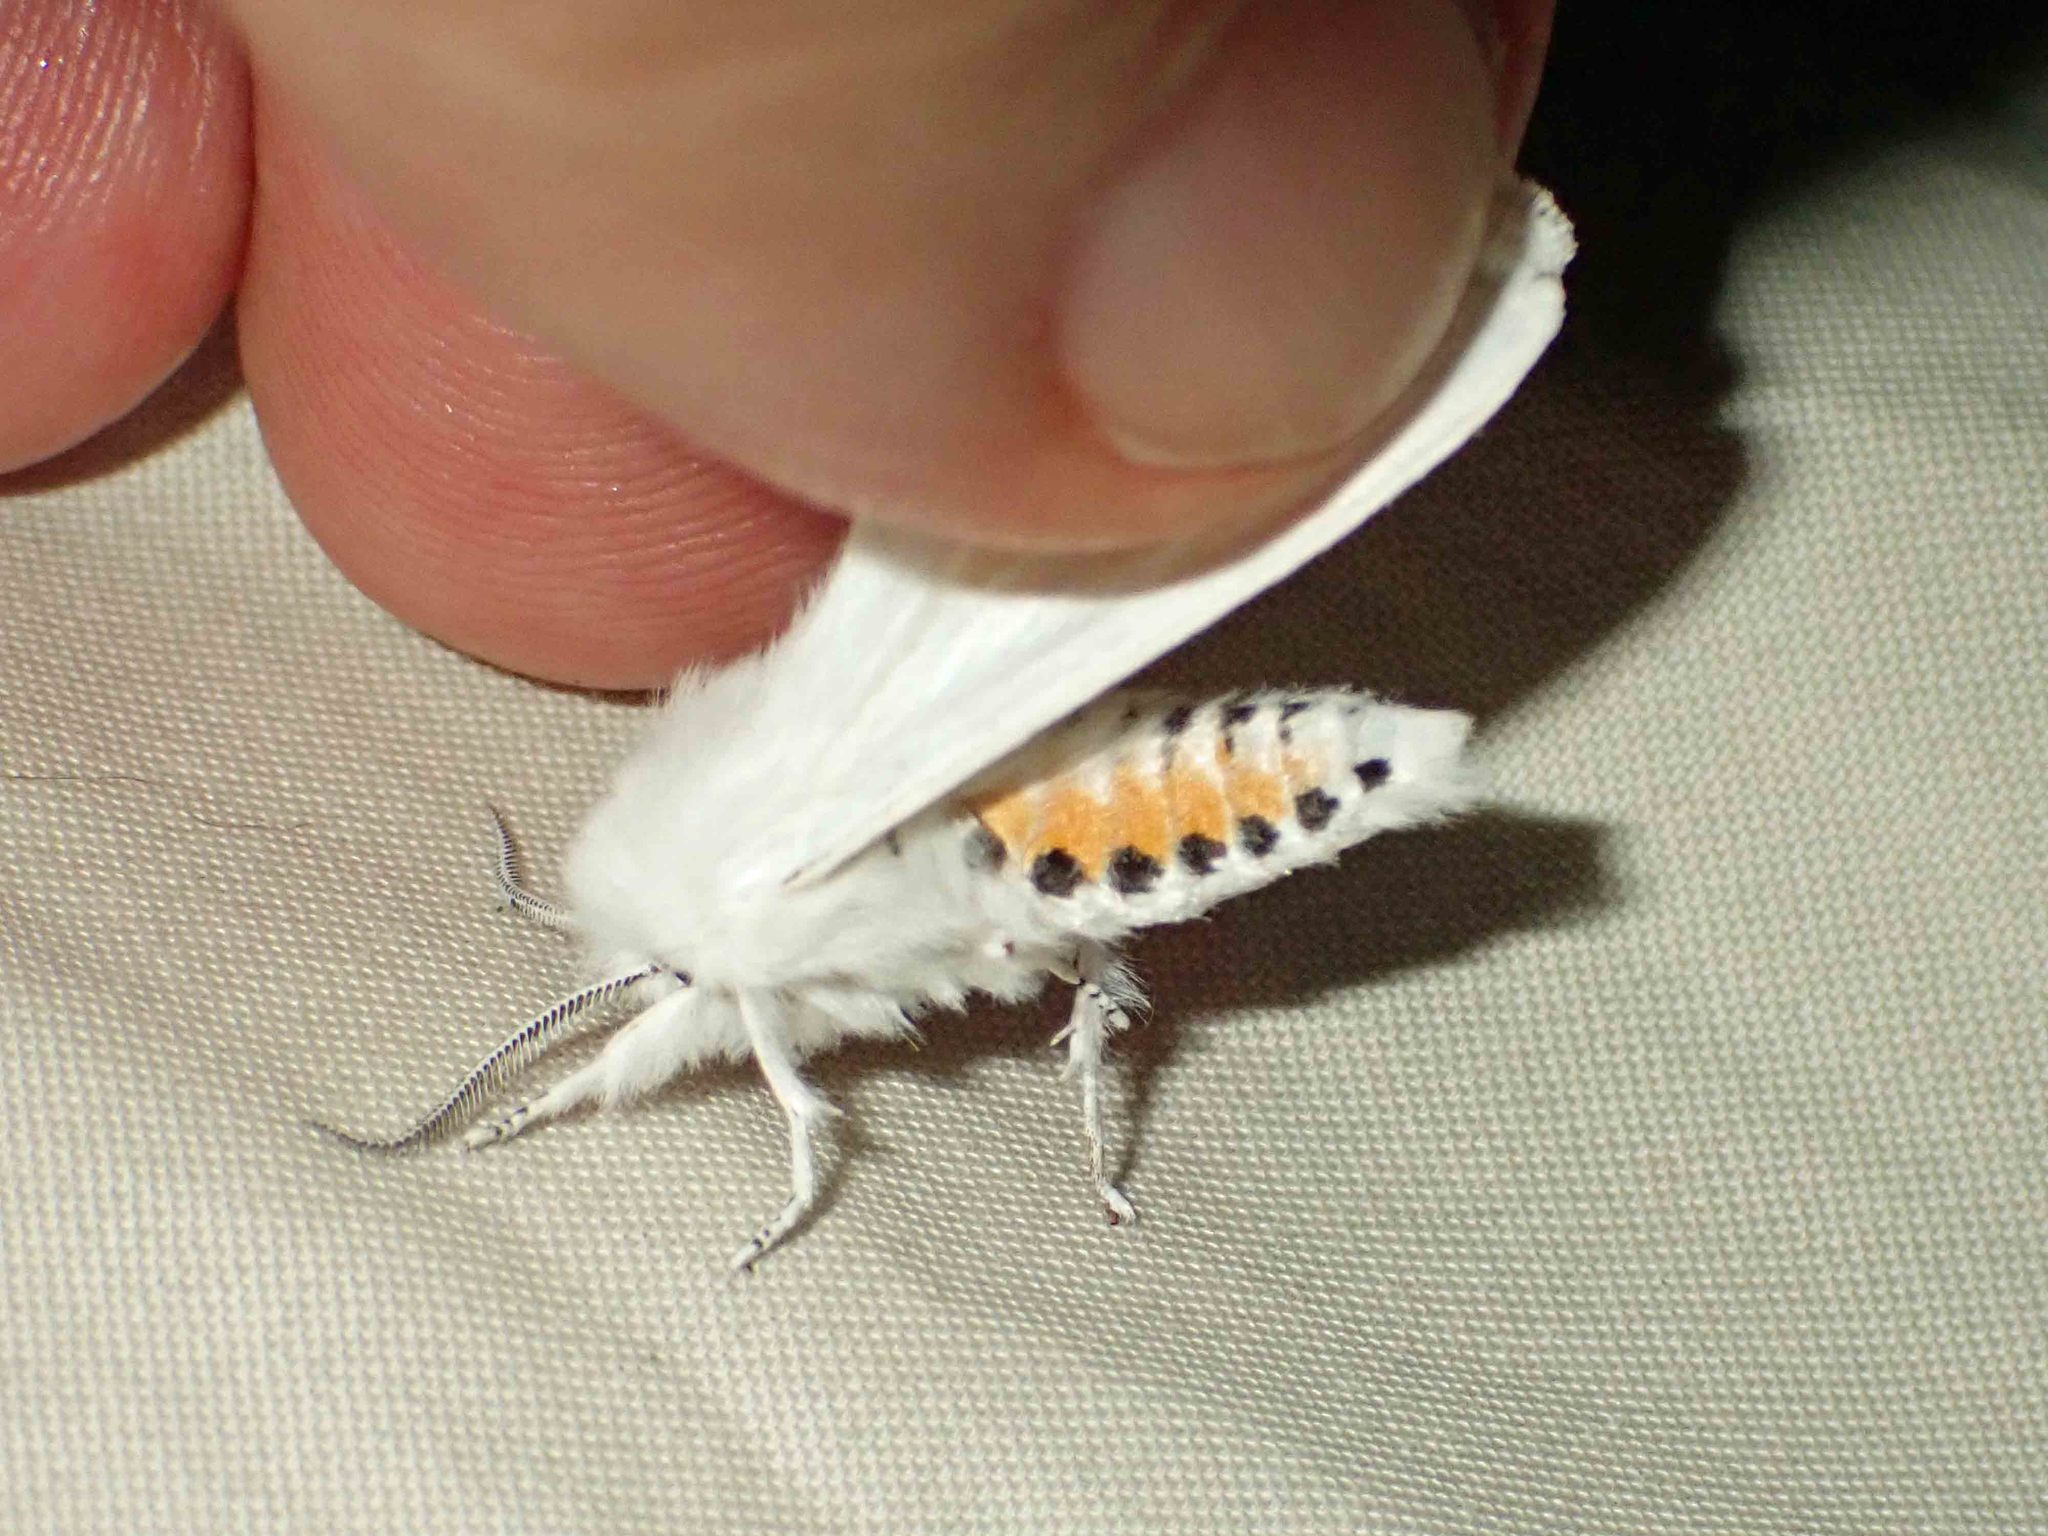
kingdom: Animalia
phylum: Arthropoda
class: Insecta
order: Lepidoptera
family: Erebidae
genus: Spilosoma
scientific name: Spilosoma virginica
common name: Virginia tiger moth
